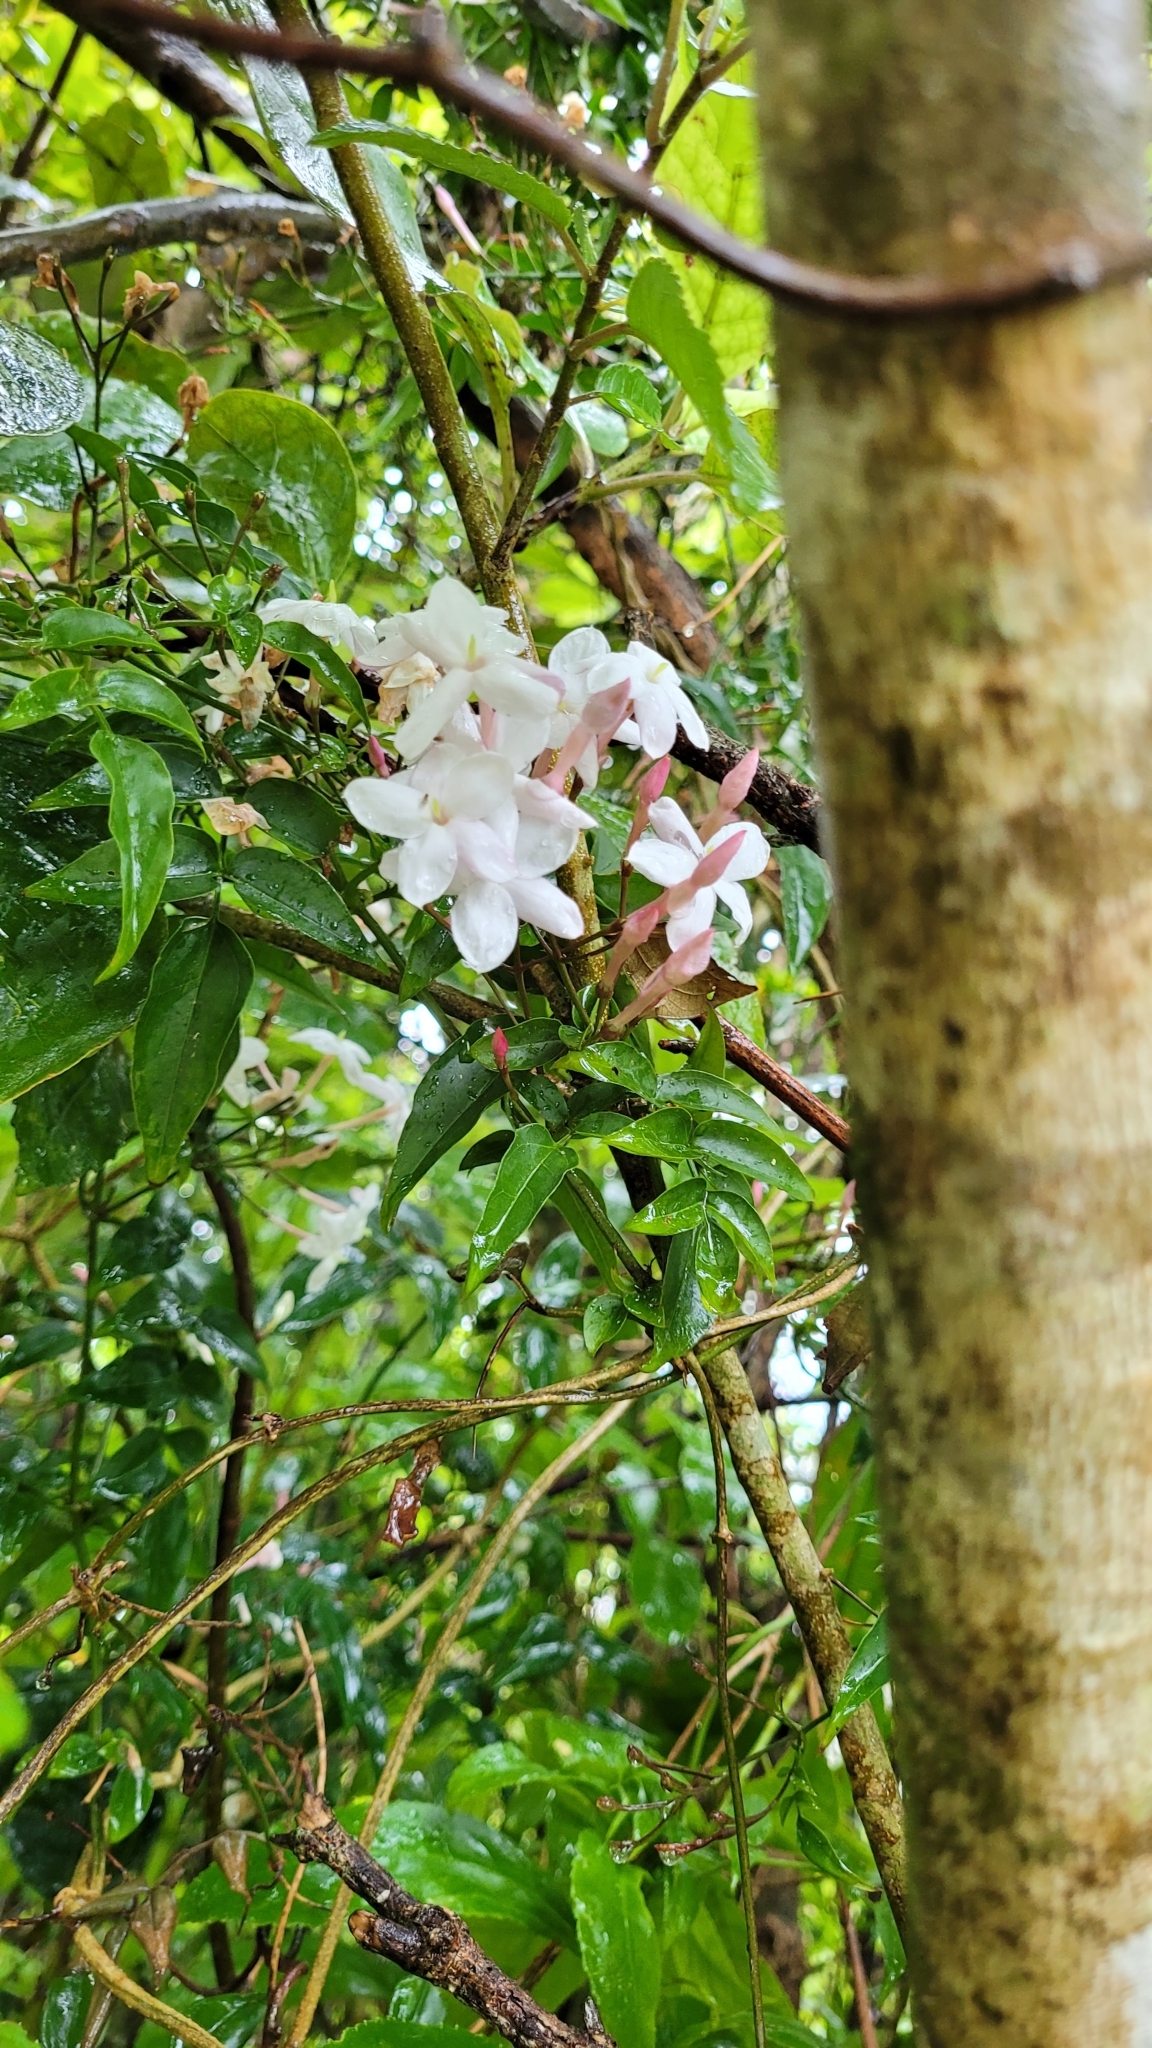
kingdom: Plantae
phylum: Tracheophyta
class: Magnoliopsida
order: Lamiales
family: Oleaceae
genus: Jasminum
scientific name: Jasminum polyanthum
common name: Pink jasmine
